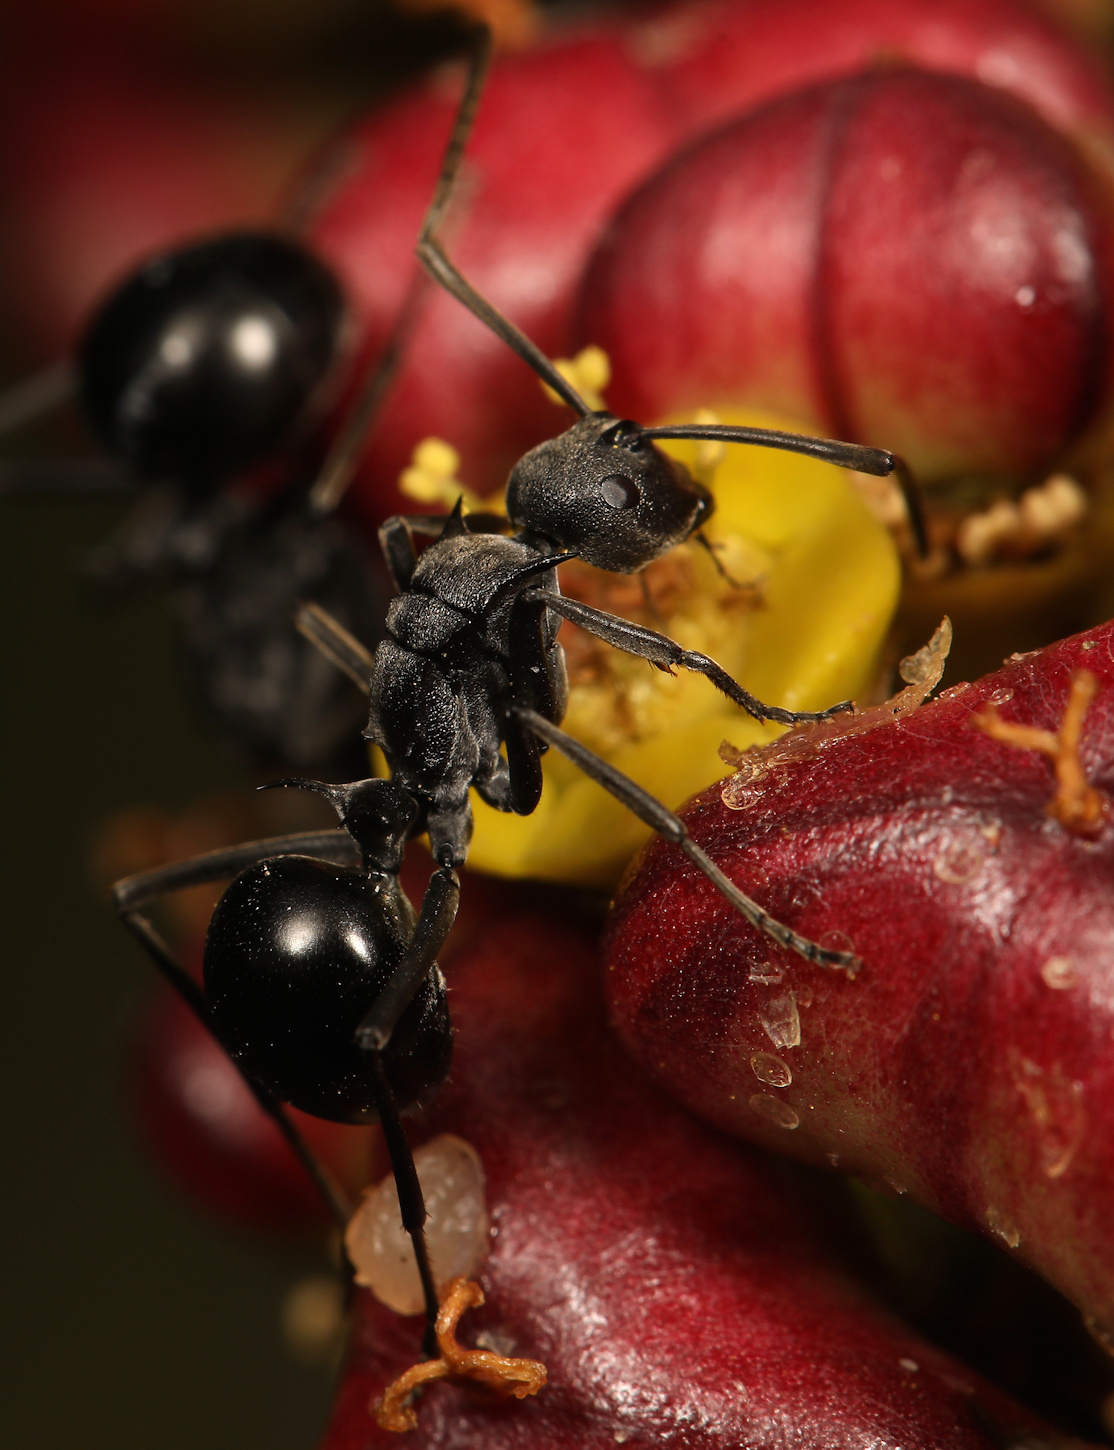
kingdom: Animalia
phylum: Arthropoda
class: Insecta
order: Hymenoptera
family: Formicidae
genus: Polyrhachis
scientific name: Polyrhachis gagates
